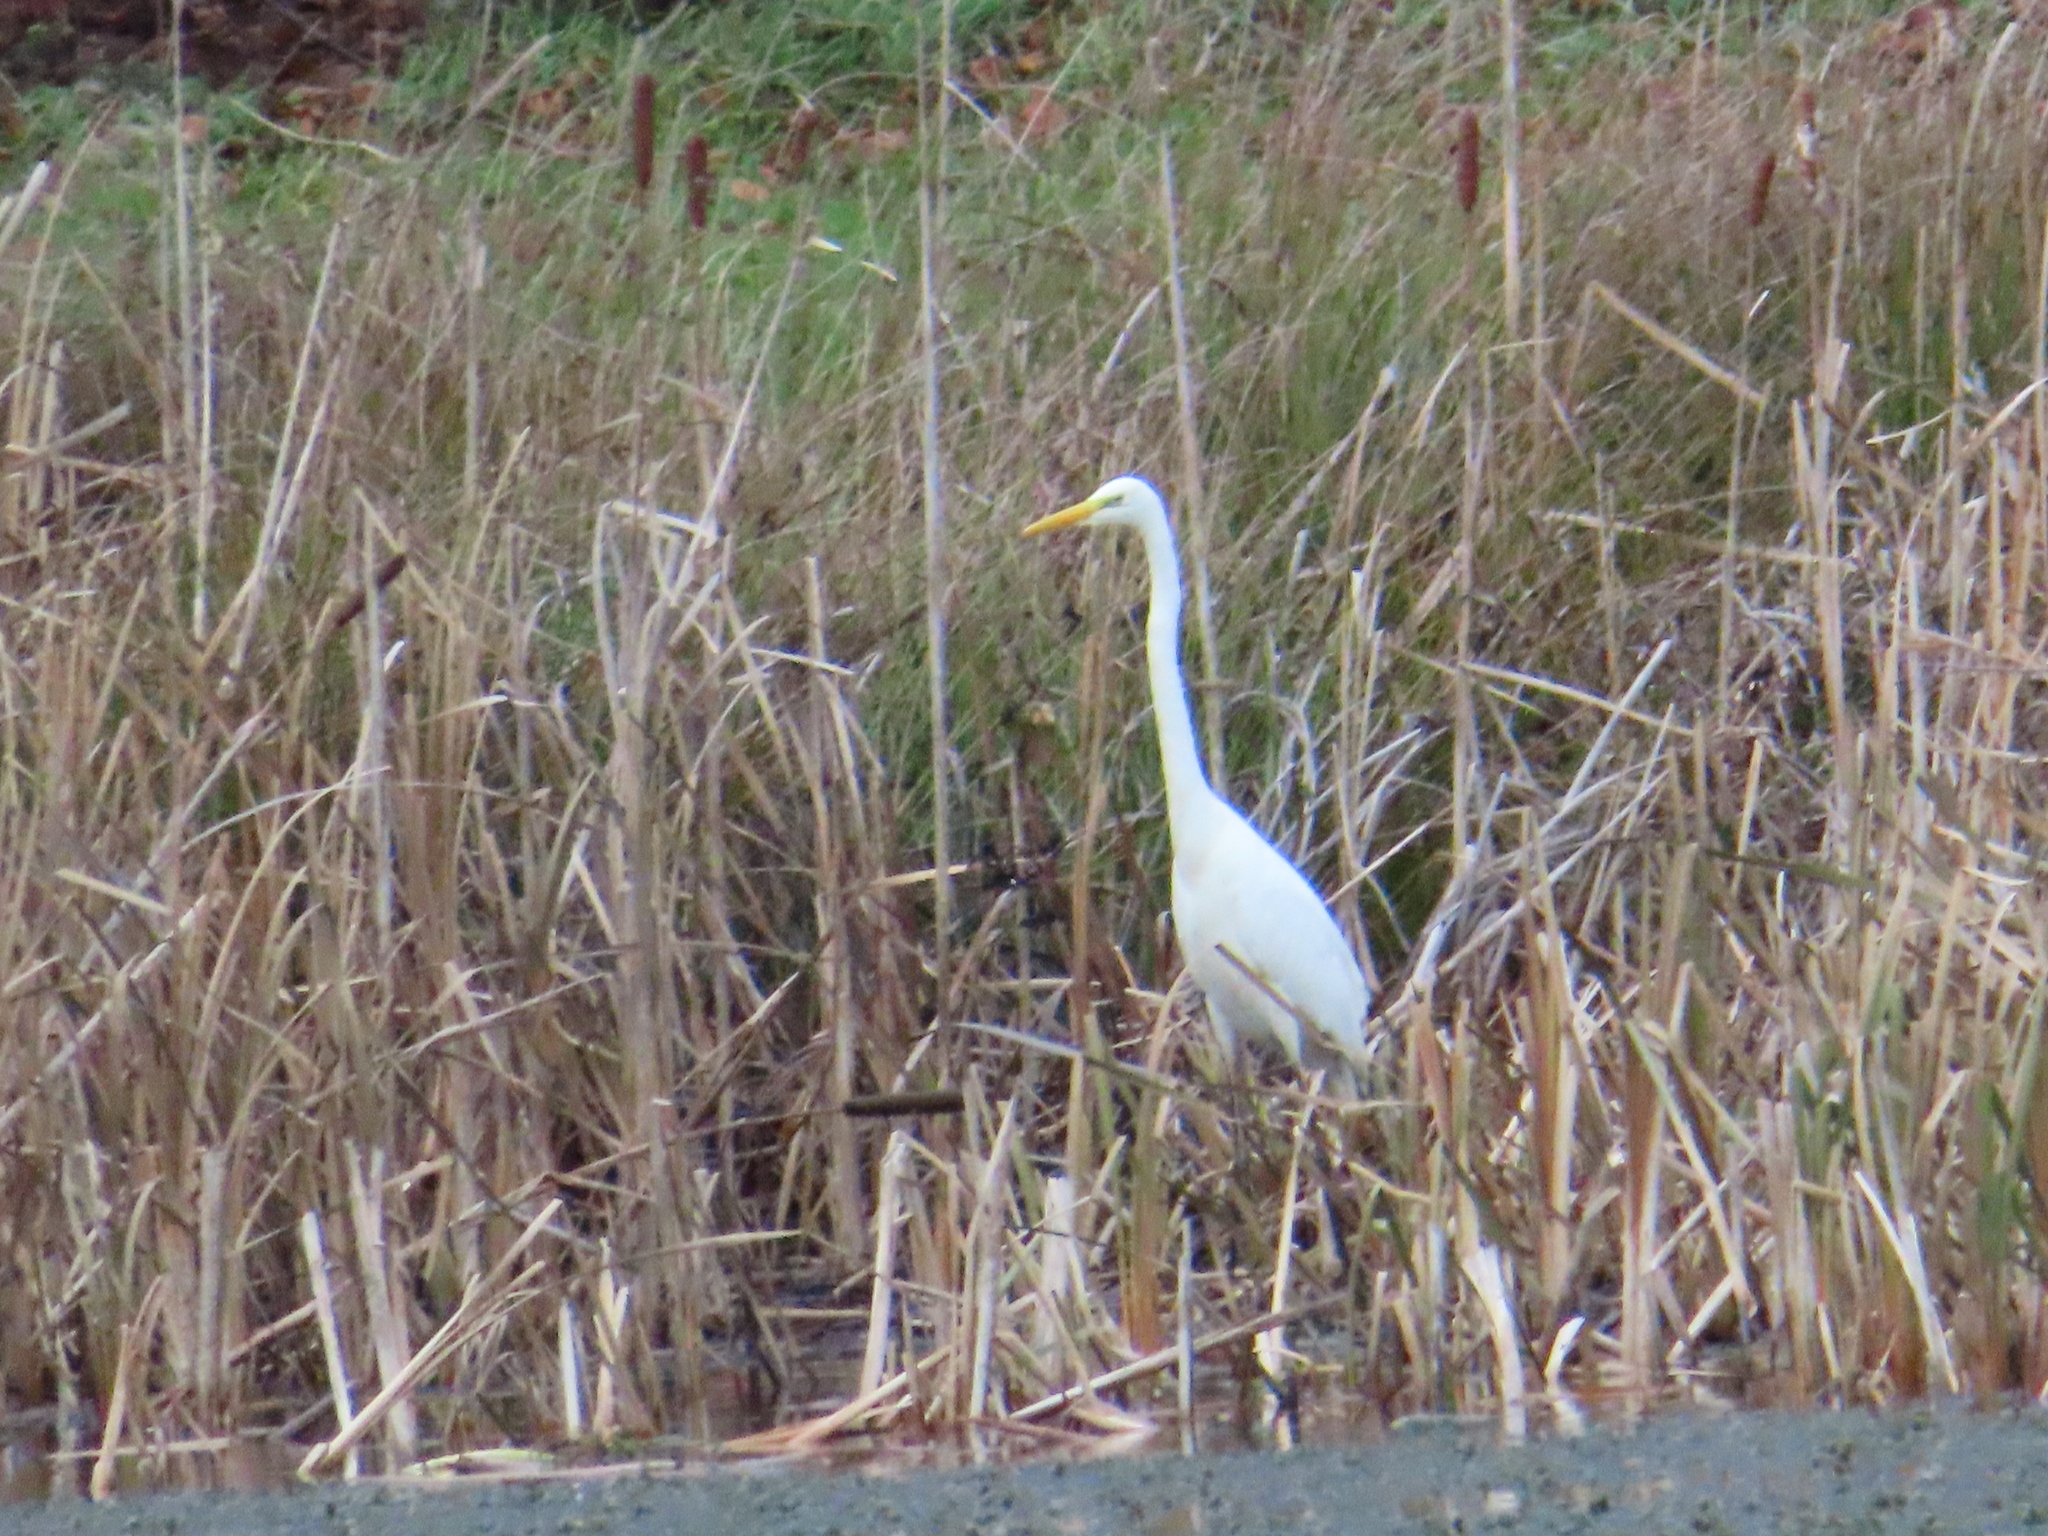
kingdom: Animalia
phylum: Chordata
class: Aves
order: Pelecaniformes
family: Ardeidae
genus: Ardea
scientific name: Ardea alba
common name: Great egret
